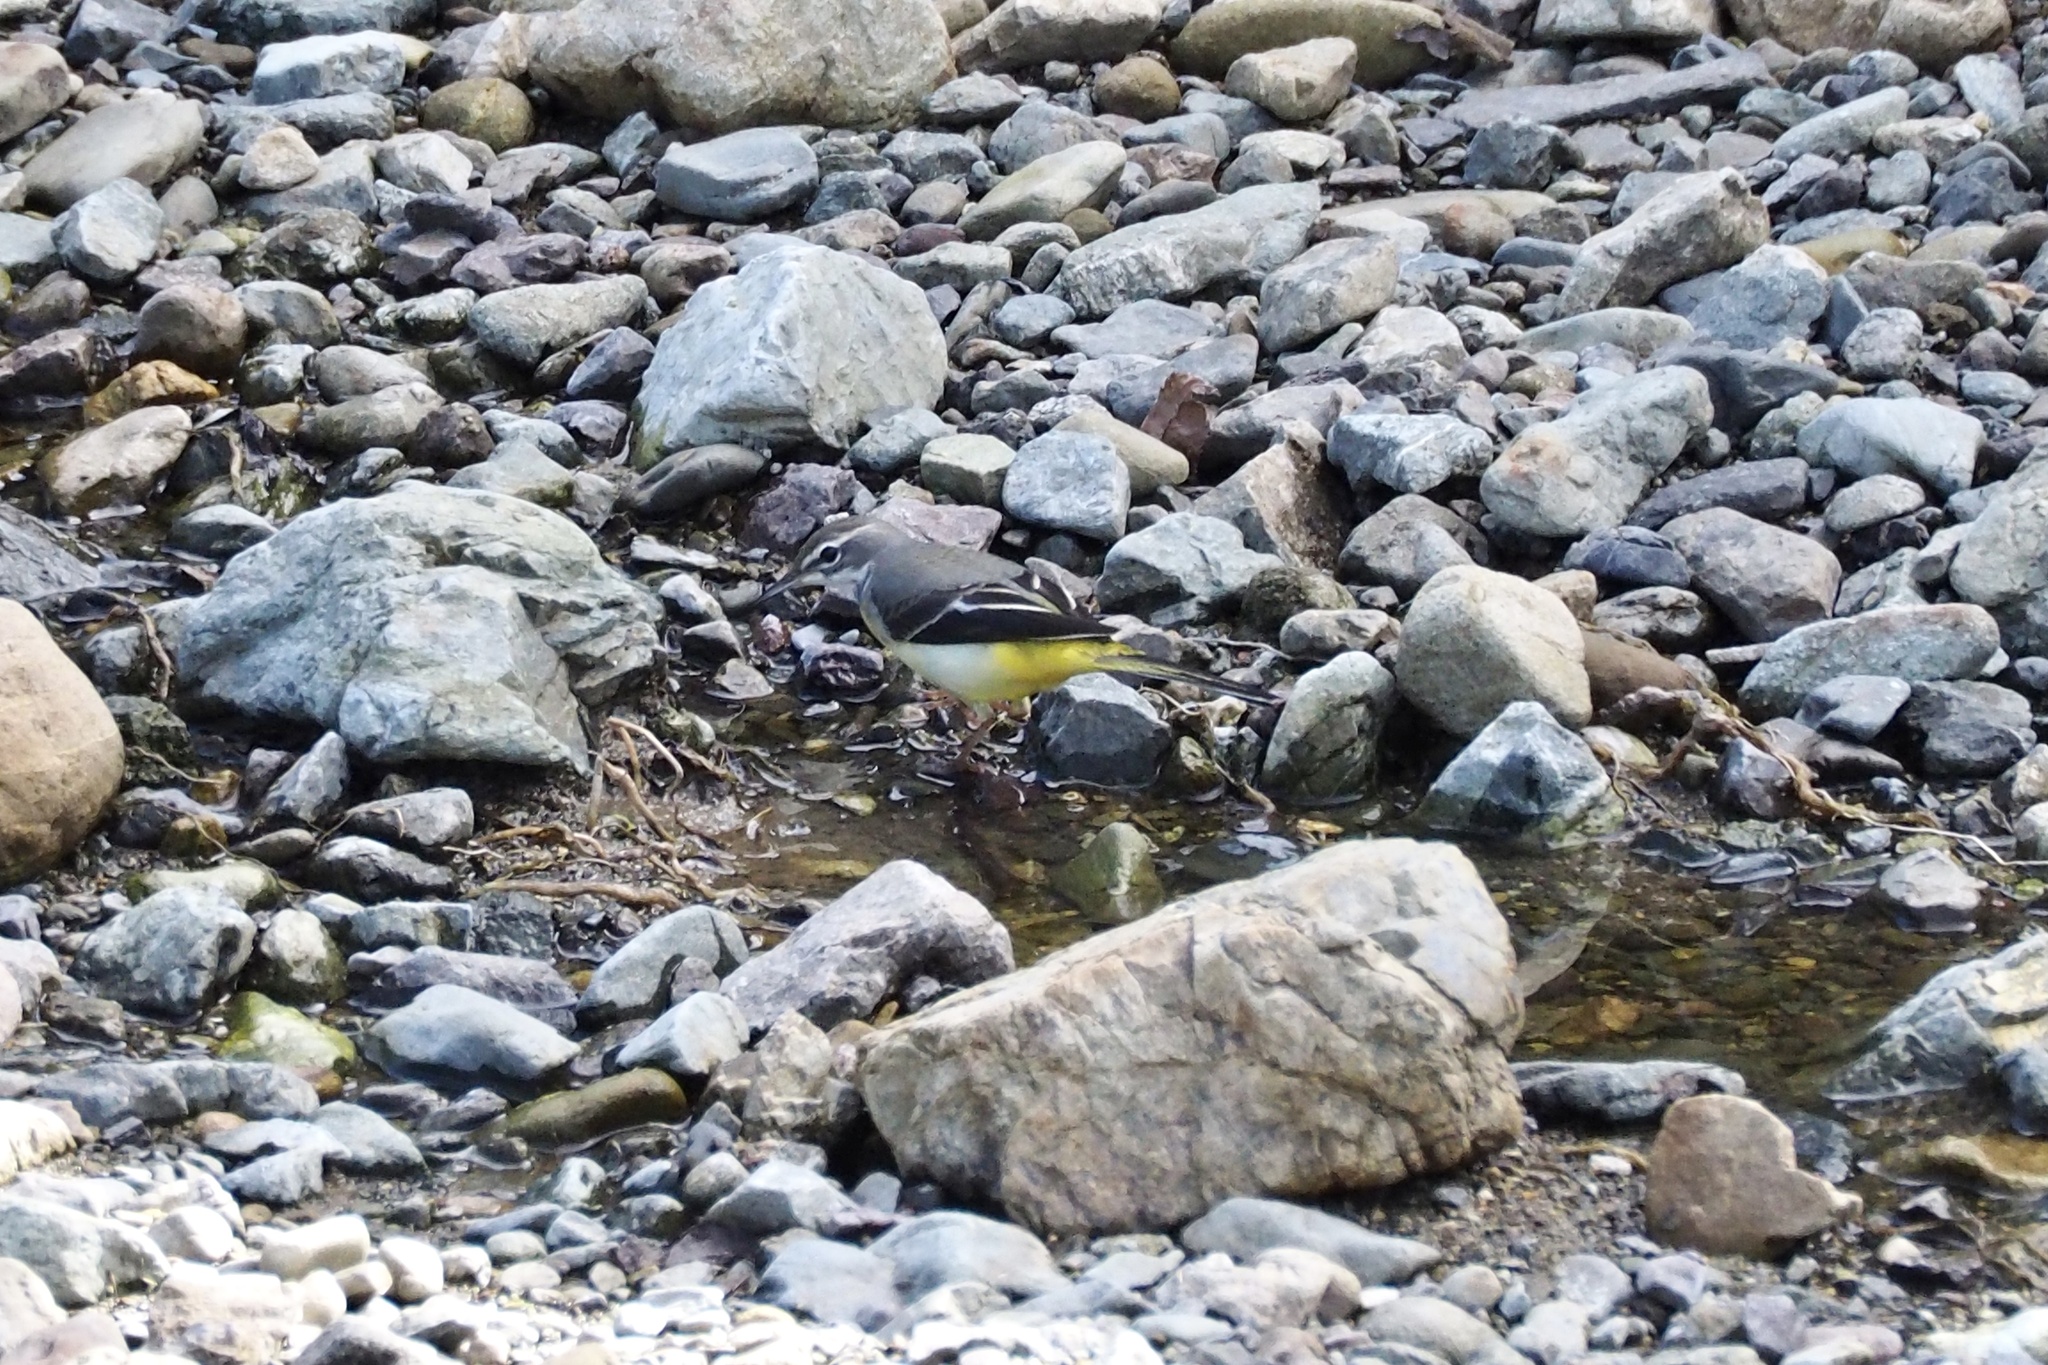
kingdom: Animalia
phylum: Chordata
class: Aves
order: Passeriformes
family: Motacillidae
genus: Motacilla
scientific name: Motacilla cinerea
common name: Grey wagtail
